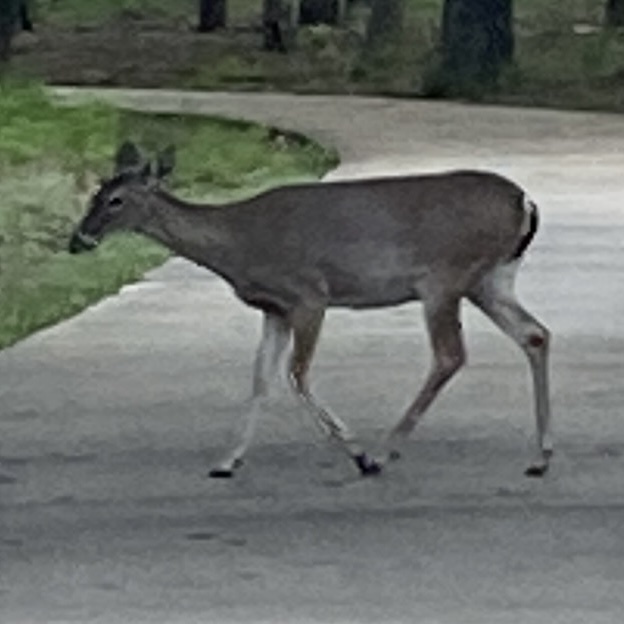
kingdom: Animalia
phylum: Chordata
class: Mammalia
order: Artiodactyla
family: Cervidae
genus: Odocoileus
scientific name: Odocoileus virginianus
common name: White-tailed deer
